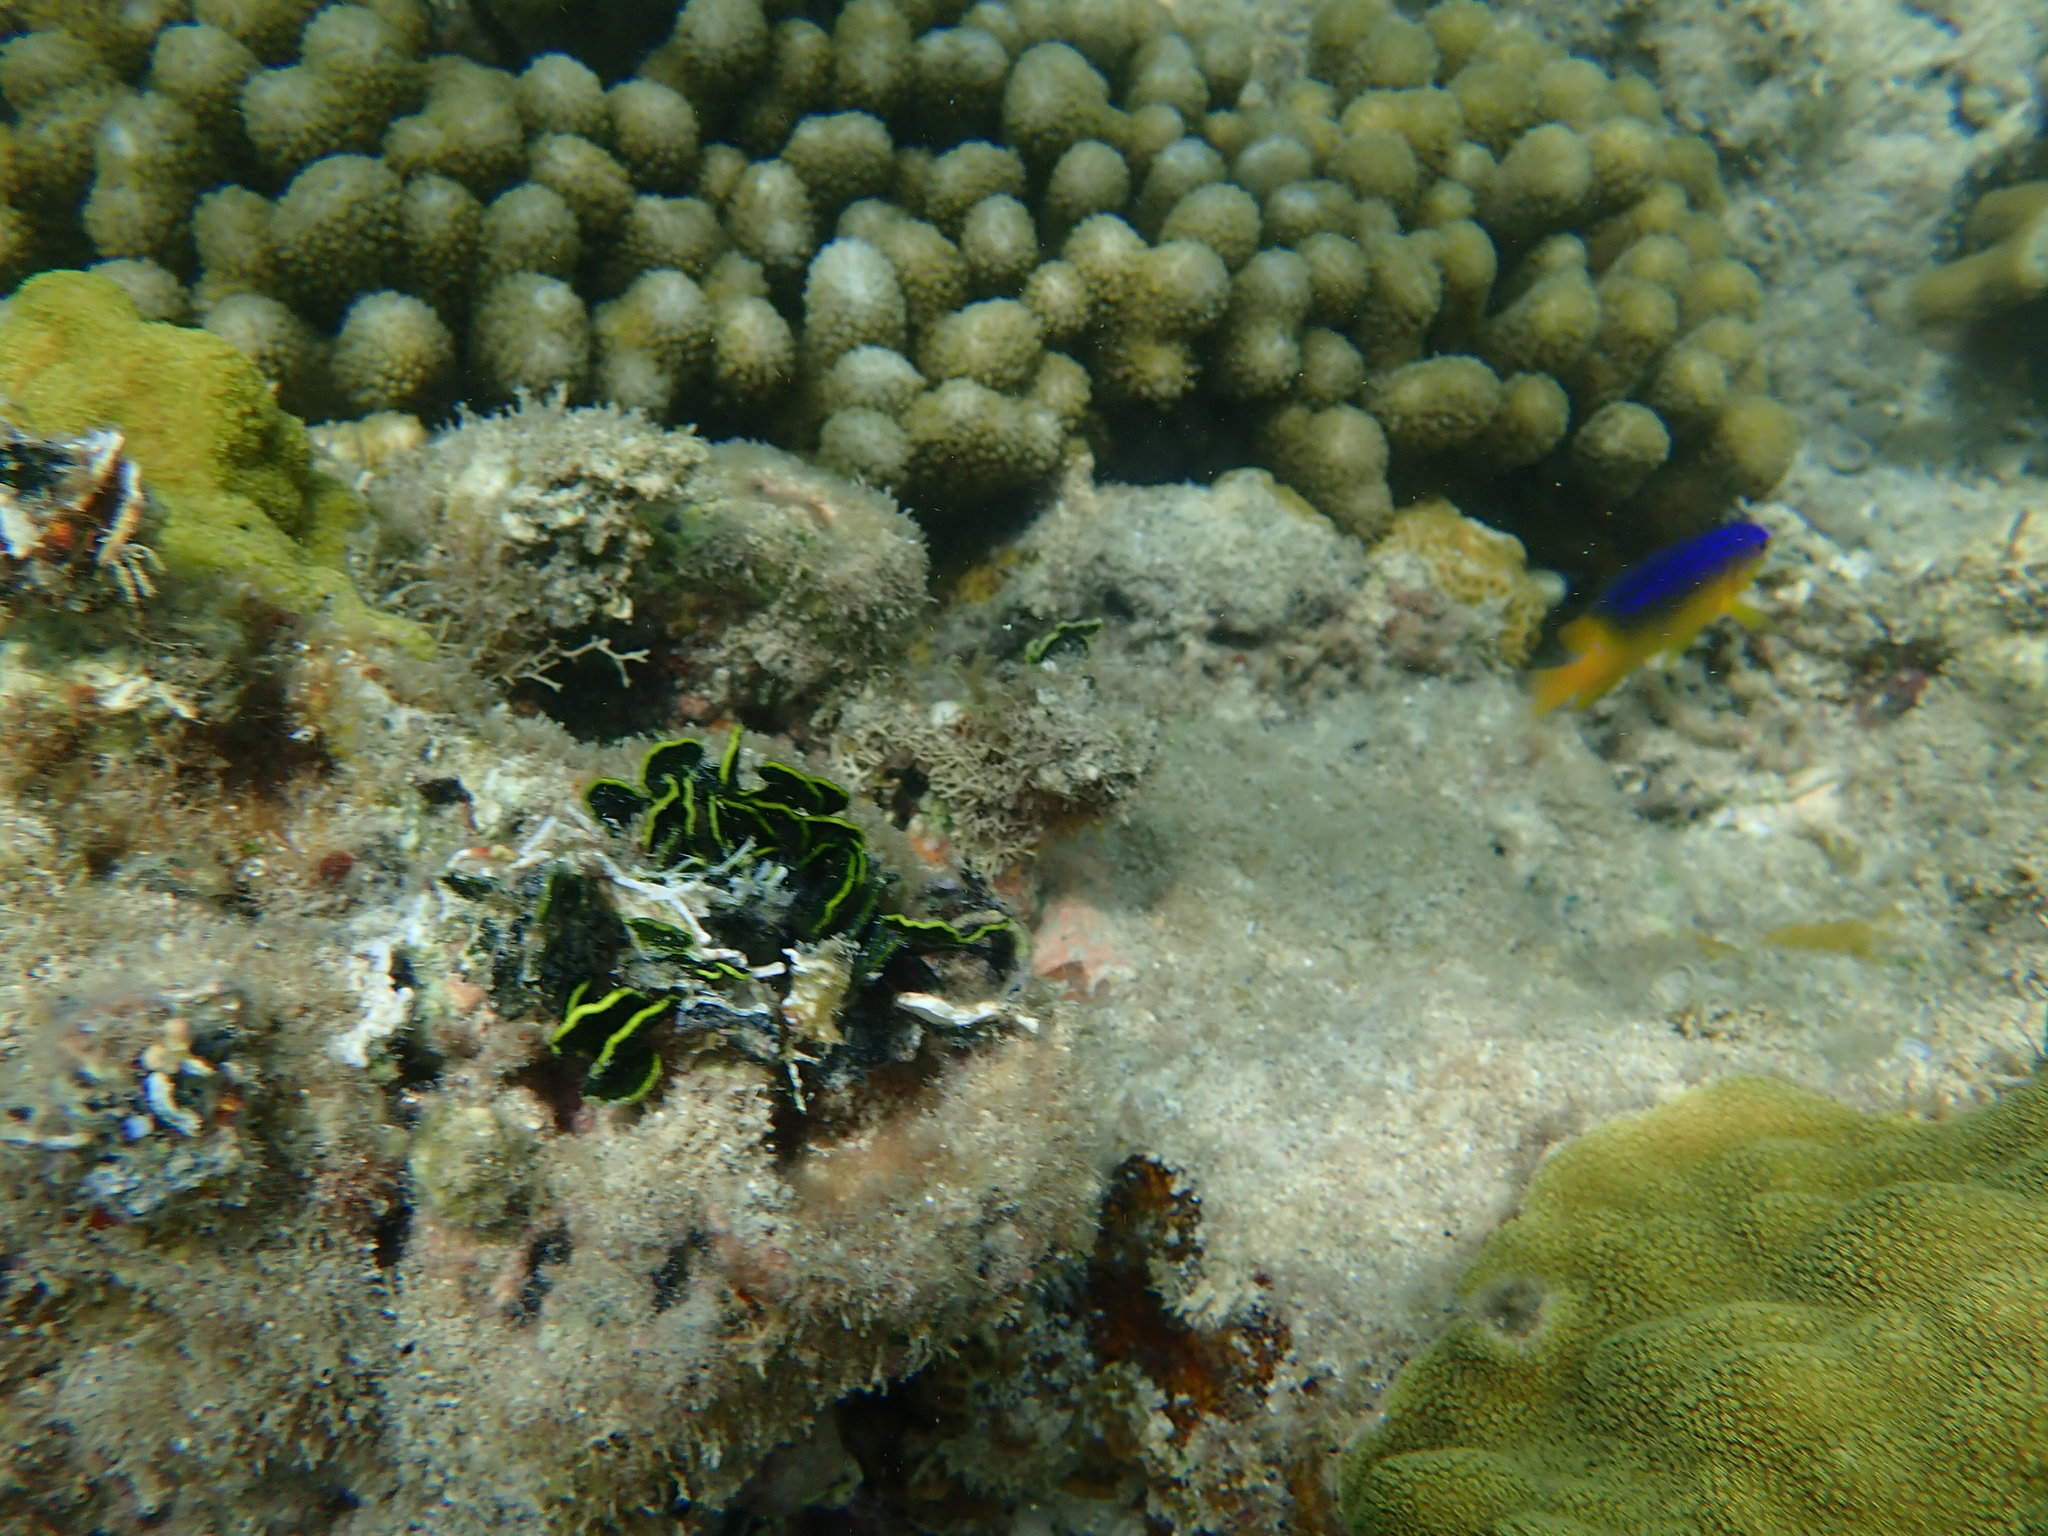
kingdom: Animalia
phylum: Chordata
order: Perciformes
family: Pomacentridae
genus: Stegastes
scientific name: Stegastes leucostictus
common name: Beaugregory
